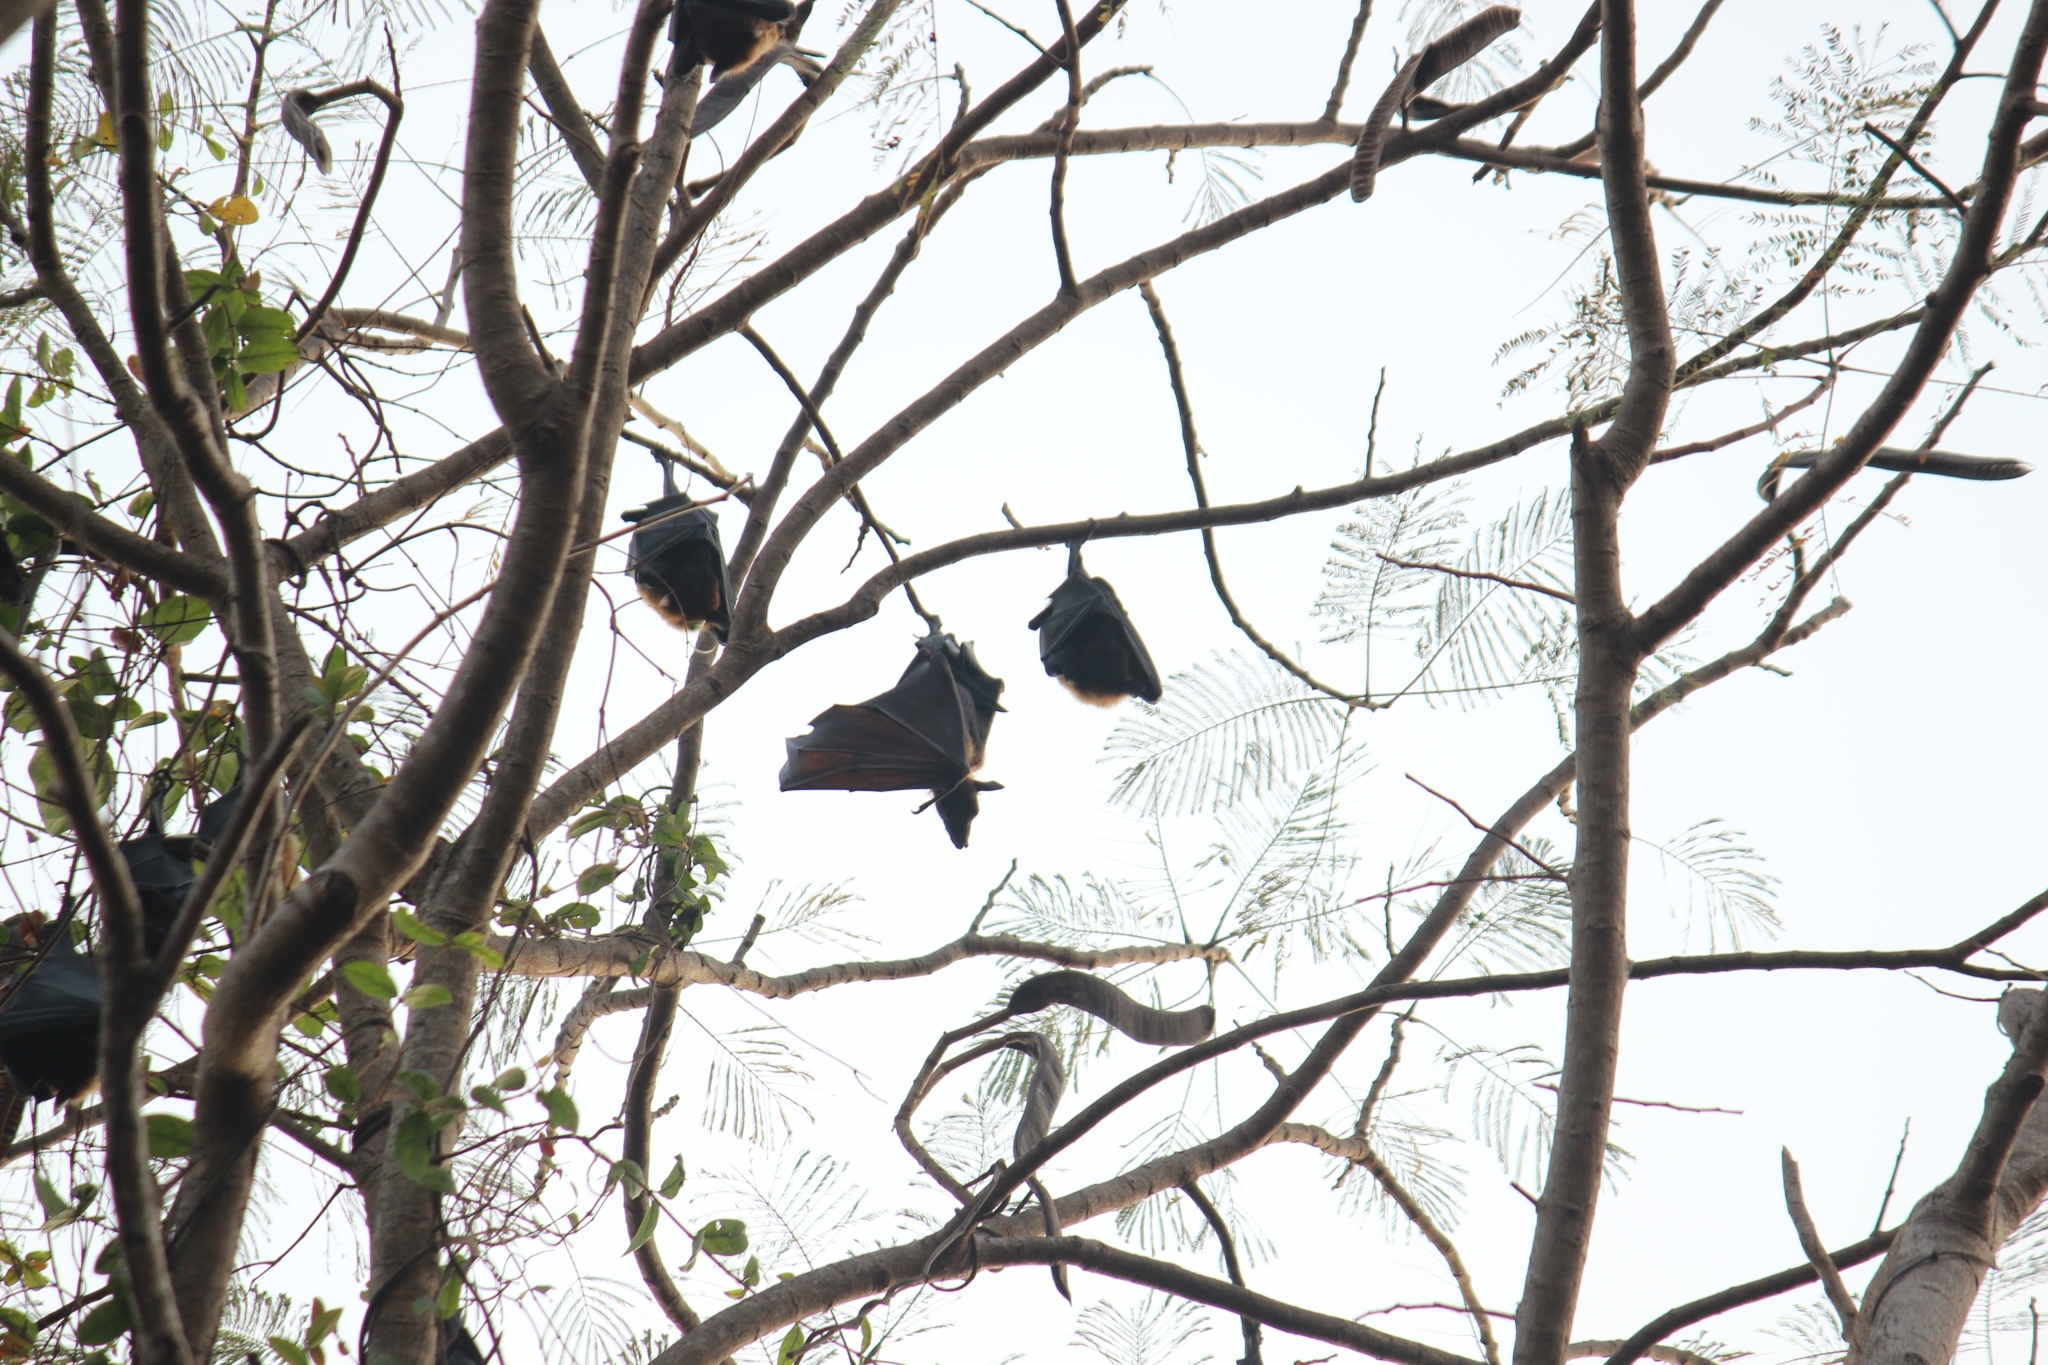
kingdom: Animalia
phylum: Chordata
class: Mammalia
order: Chiroptera
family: Pteropodidae
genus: Pteropus
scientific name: Pteropus vampyrus
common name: Large flying fox
